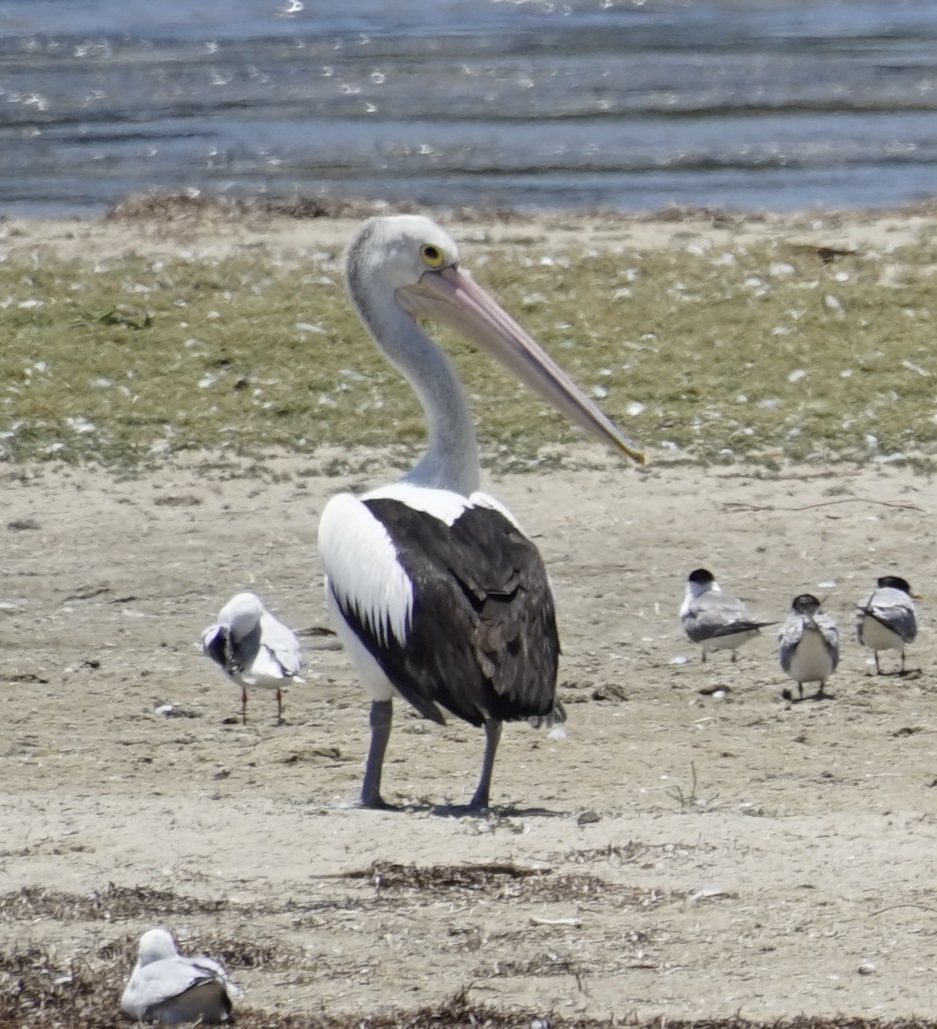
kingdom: Animalia
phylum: Chordata
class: Aves
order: Pelecaniformes
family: Pelecanidae
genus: Pelecanus
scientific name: Pelecanus conspicillatus
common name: Australian pelican
